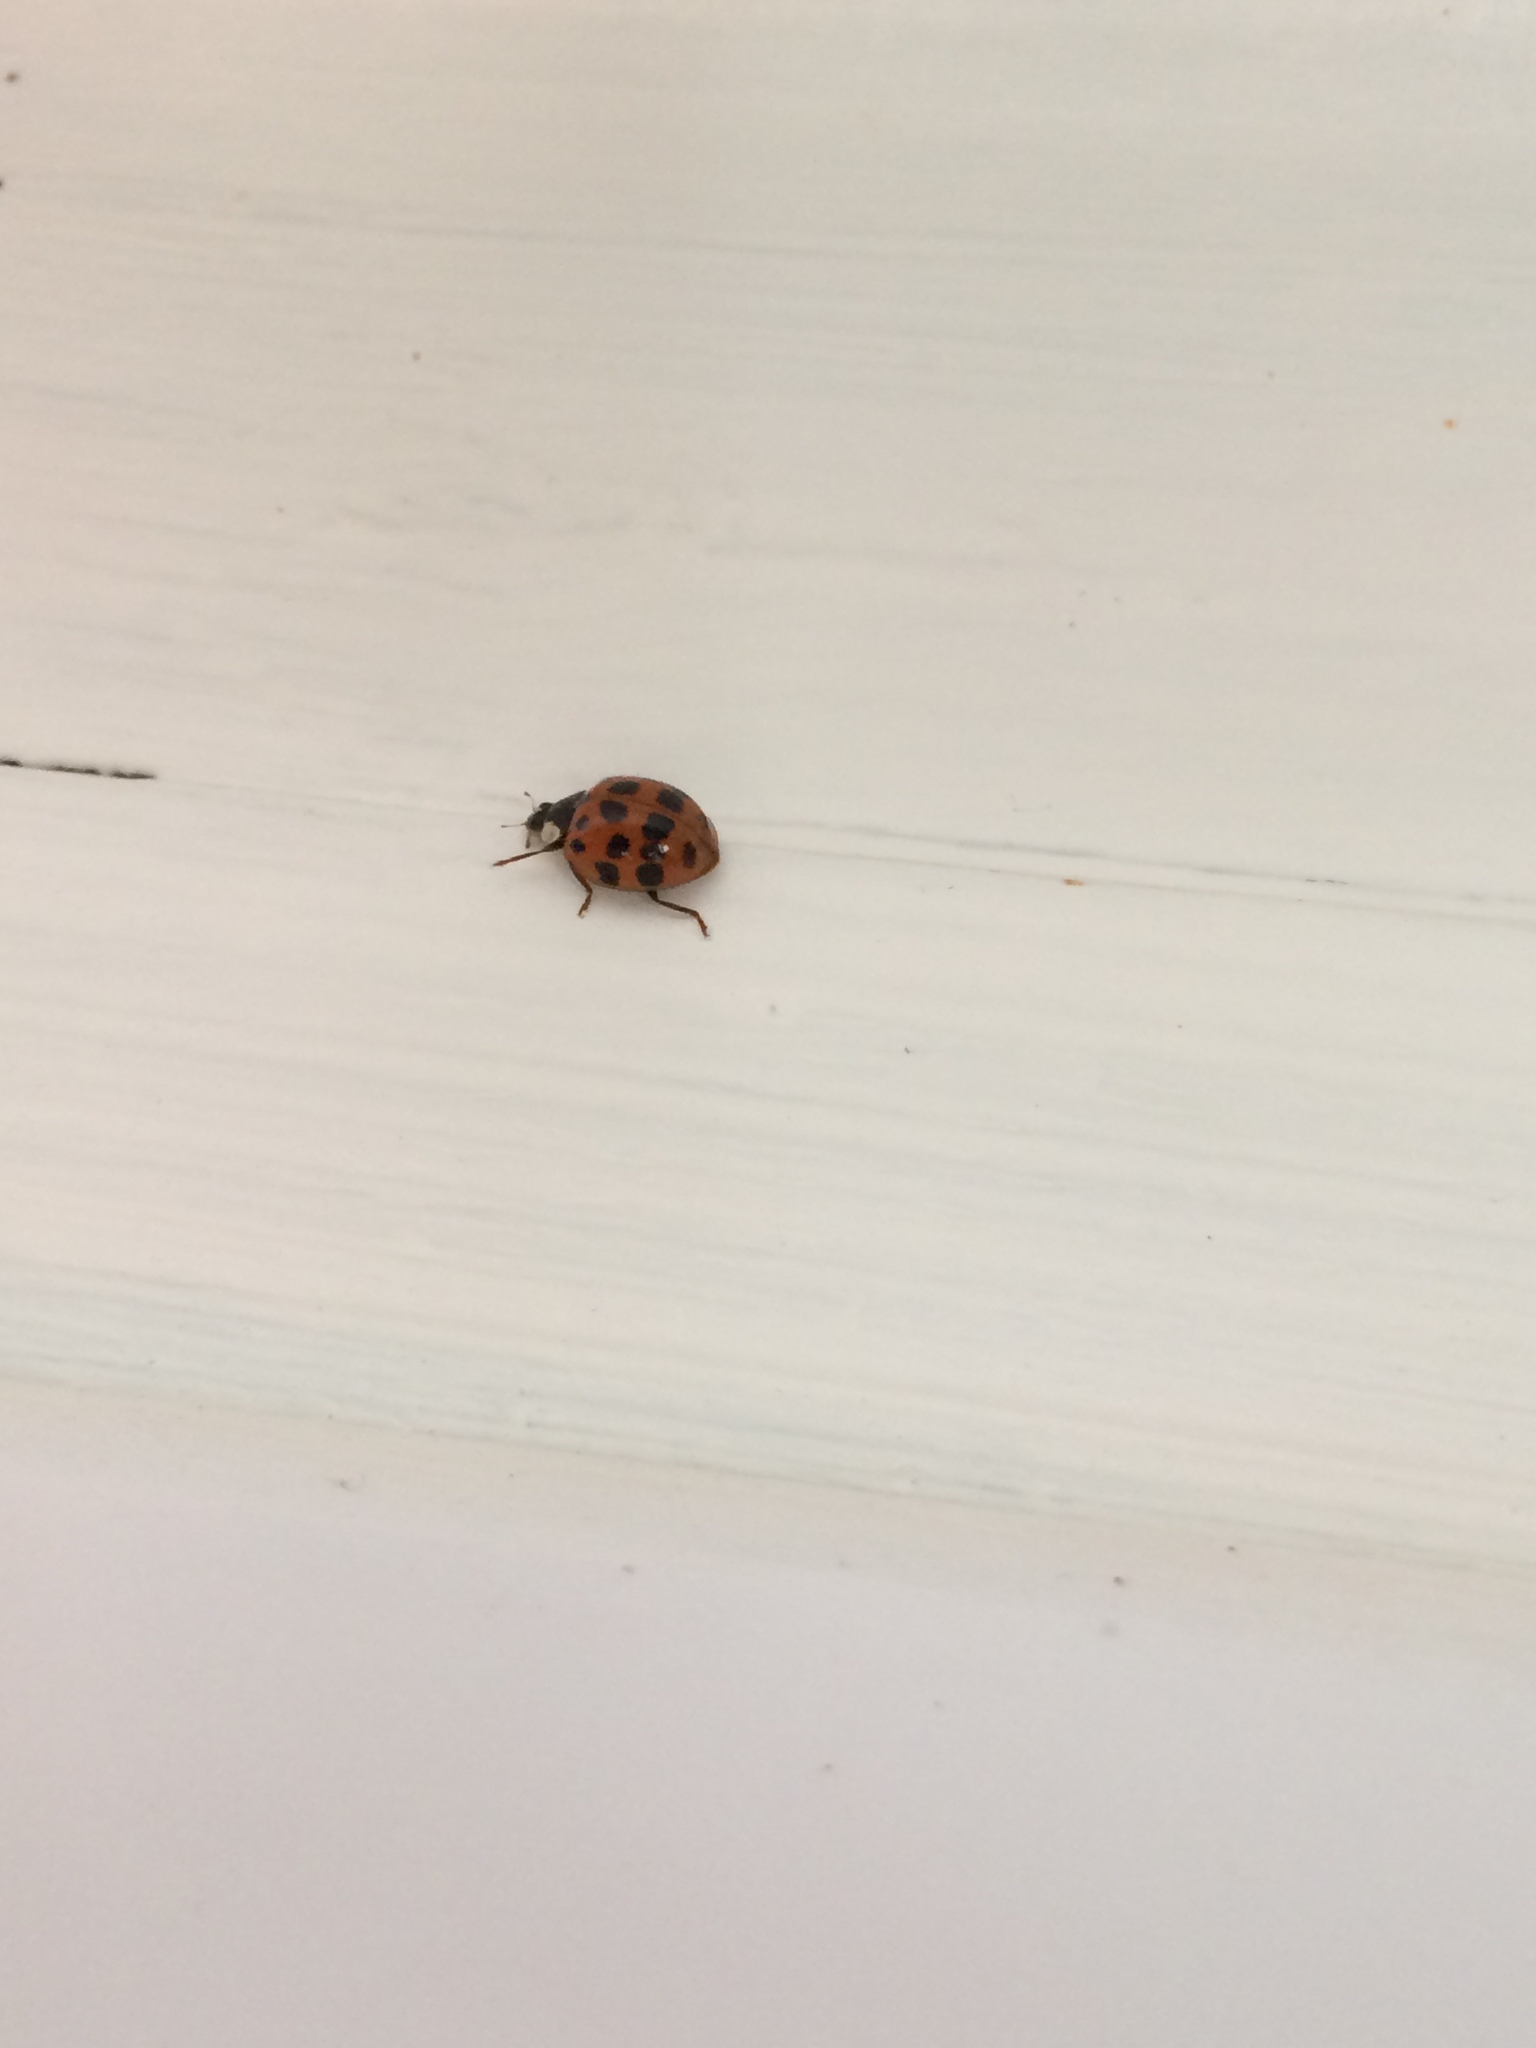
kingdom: Animalia
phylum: Arthropoda
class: Insecta
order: Coleoptera
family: Coccinellidae
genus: Harmonia
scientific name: Harmonia axyridis
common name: Harlequin ladybird
